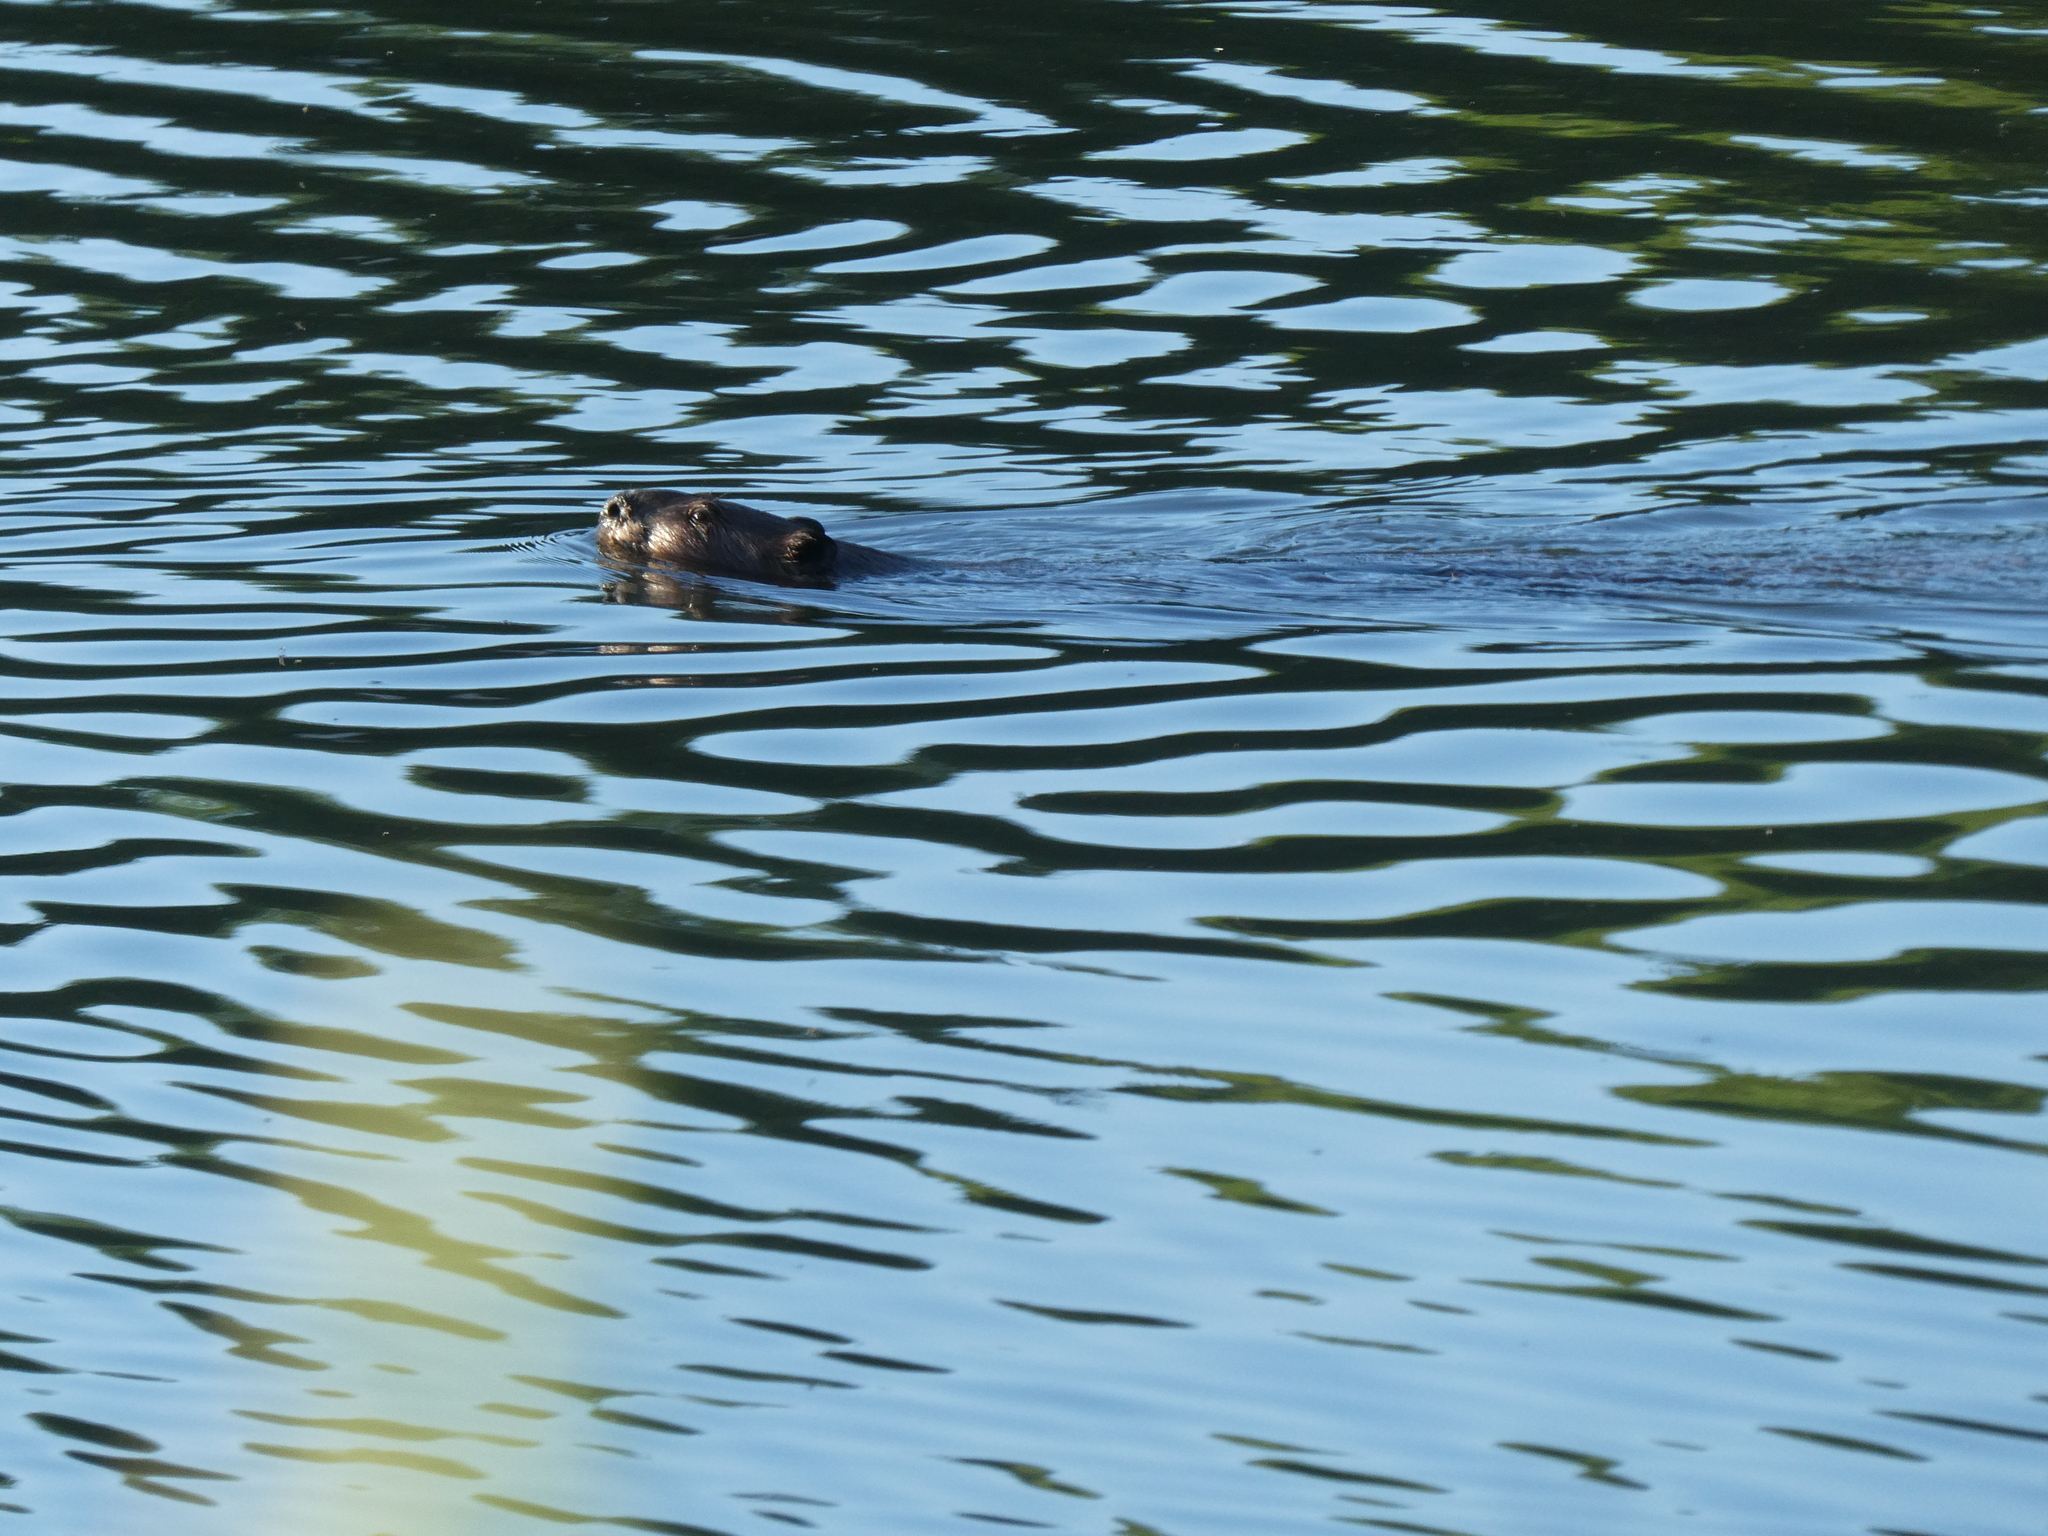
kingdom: Animalia
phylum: Chordata
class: Mammalia
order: Rodentia
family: Castoridae
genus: Castor
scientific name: Castor canadensis
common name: American beaver
